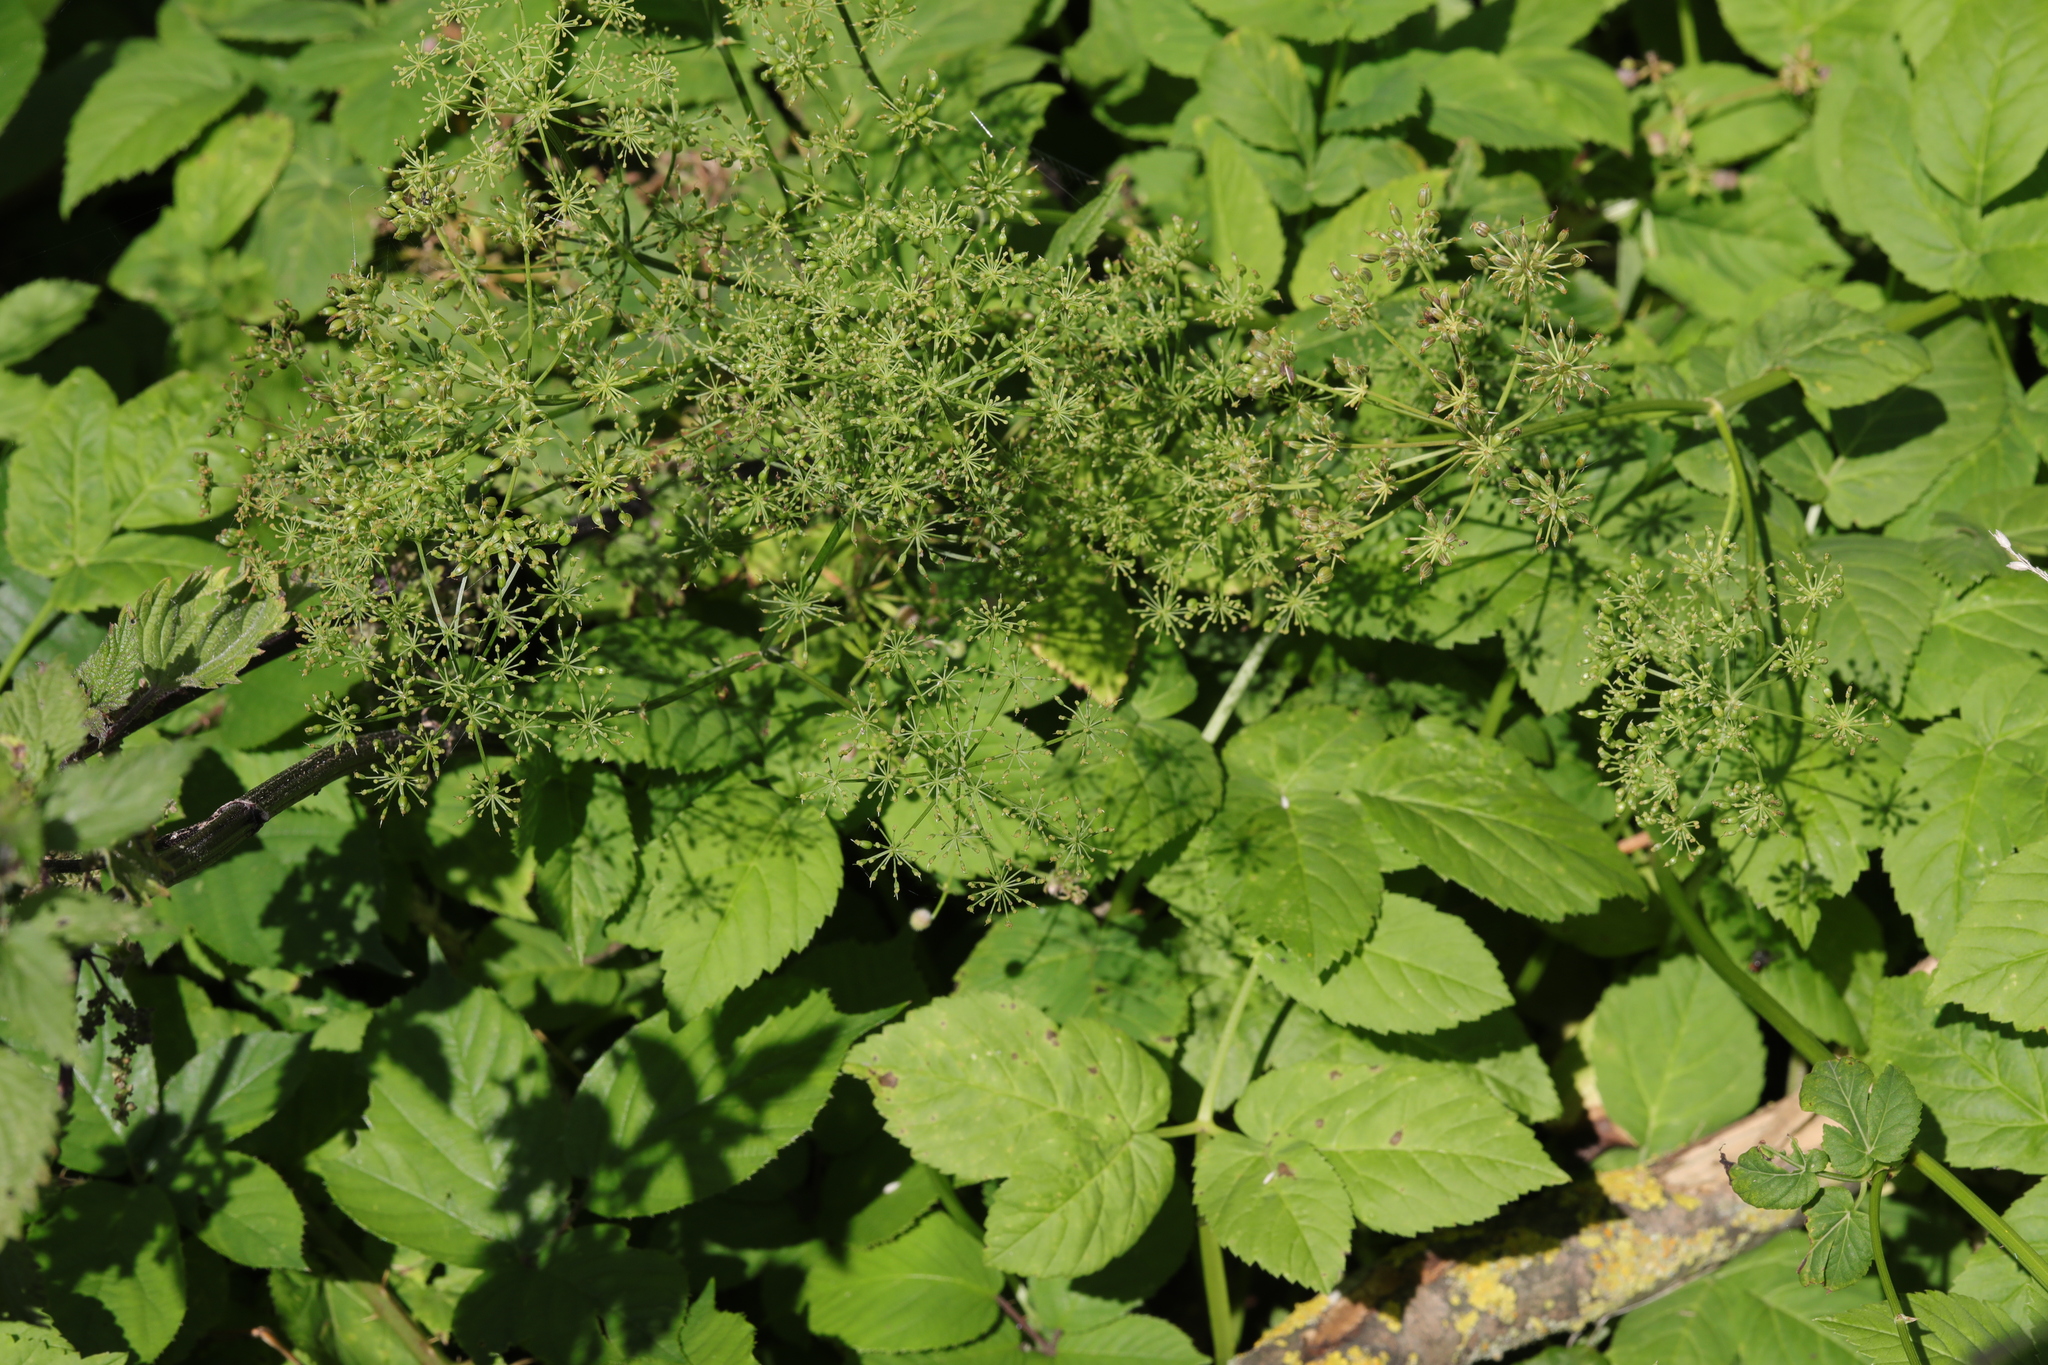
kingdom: Plantae
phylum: Tracheophyta
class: Magnoliopsida
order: Apiales
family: Apiaceae
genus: Aegopodium
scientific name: Aegopodium podagraria
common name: Ground-elder
